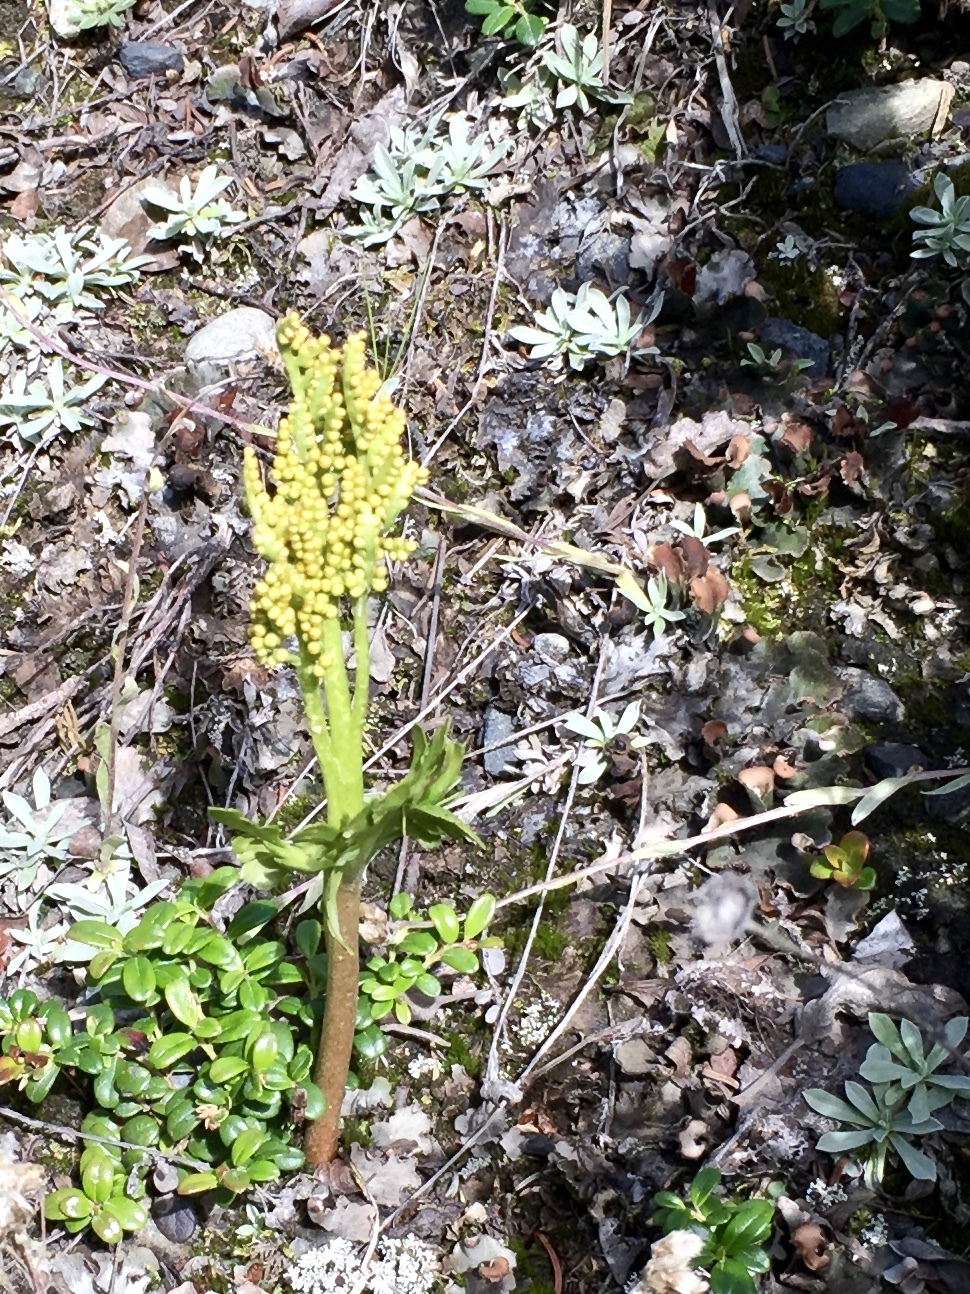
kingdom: Plantae
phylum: Tracheophyta
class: Polypodiopsida
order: Ophioglossales
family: Ophioglossaceae
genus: Botrychium
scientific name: Botrychium alaskense
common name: Alaska moonwort
